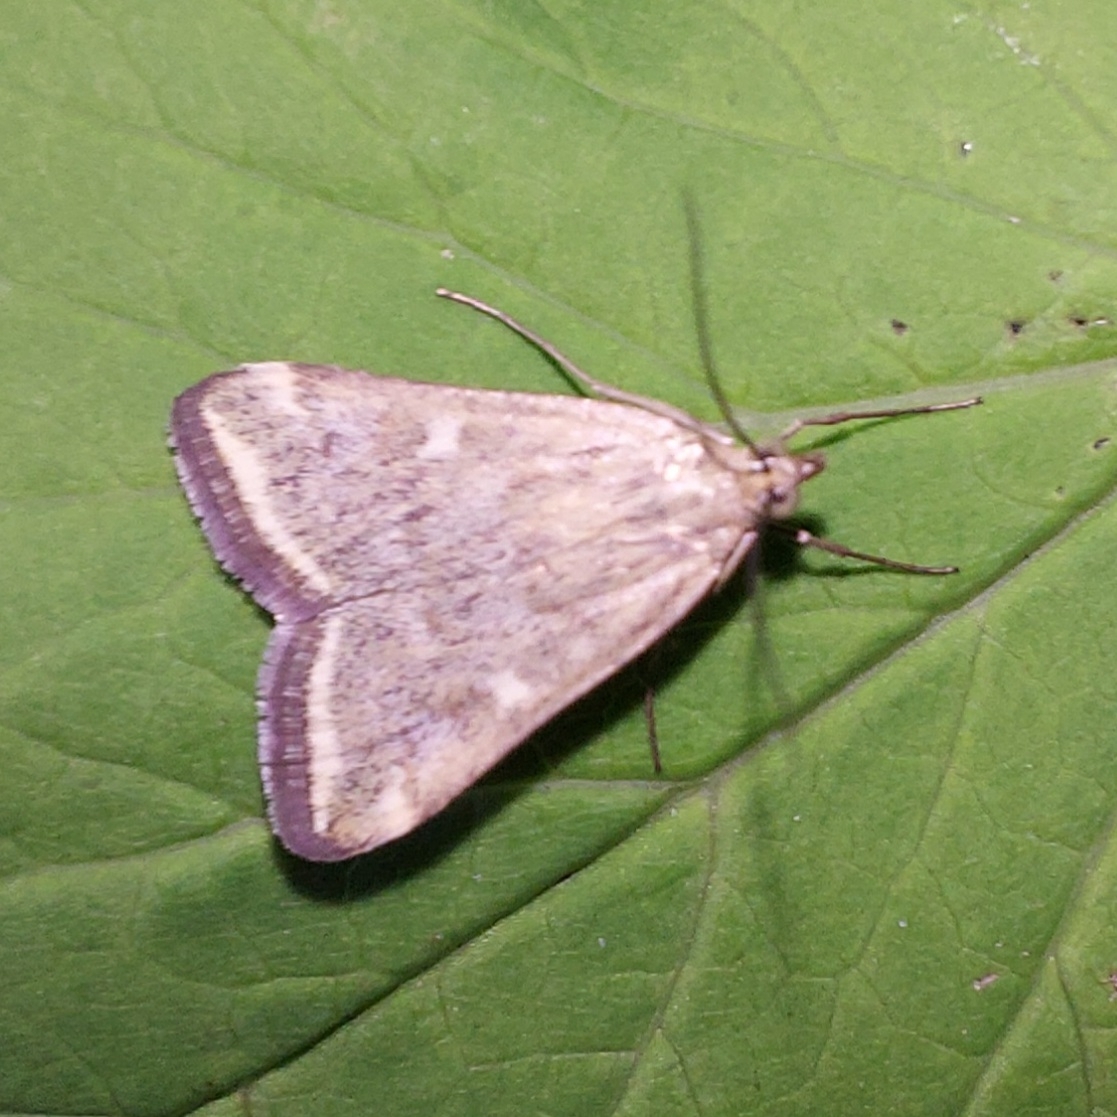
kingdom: Animalia
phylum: Arthropoda
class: Insecta
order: Lepidoptera
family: Crambidae
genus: Loxostege
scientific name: Loxostege sticticalis
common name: Crambid moth
